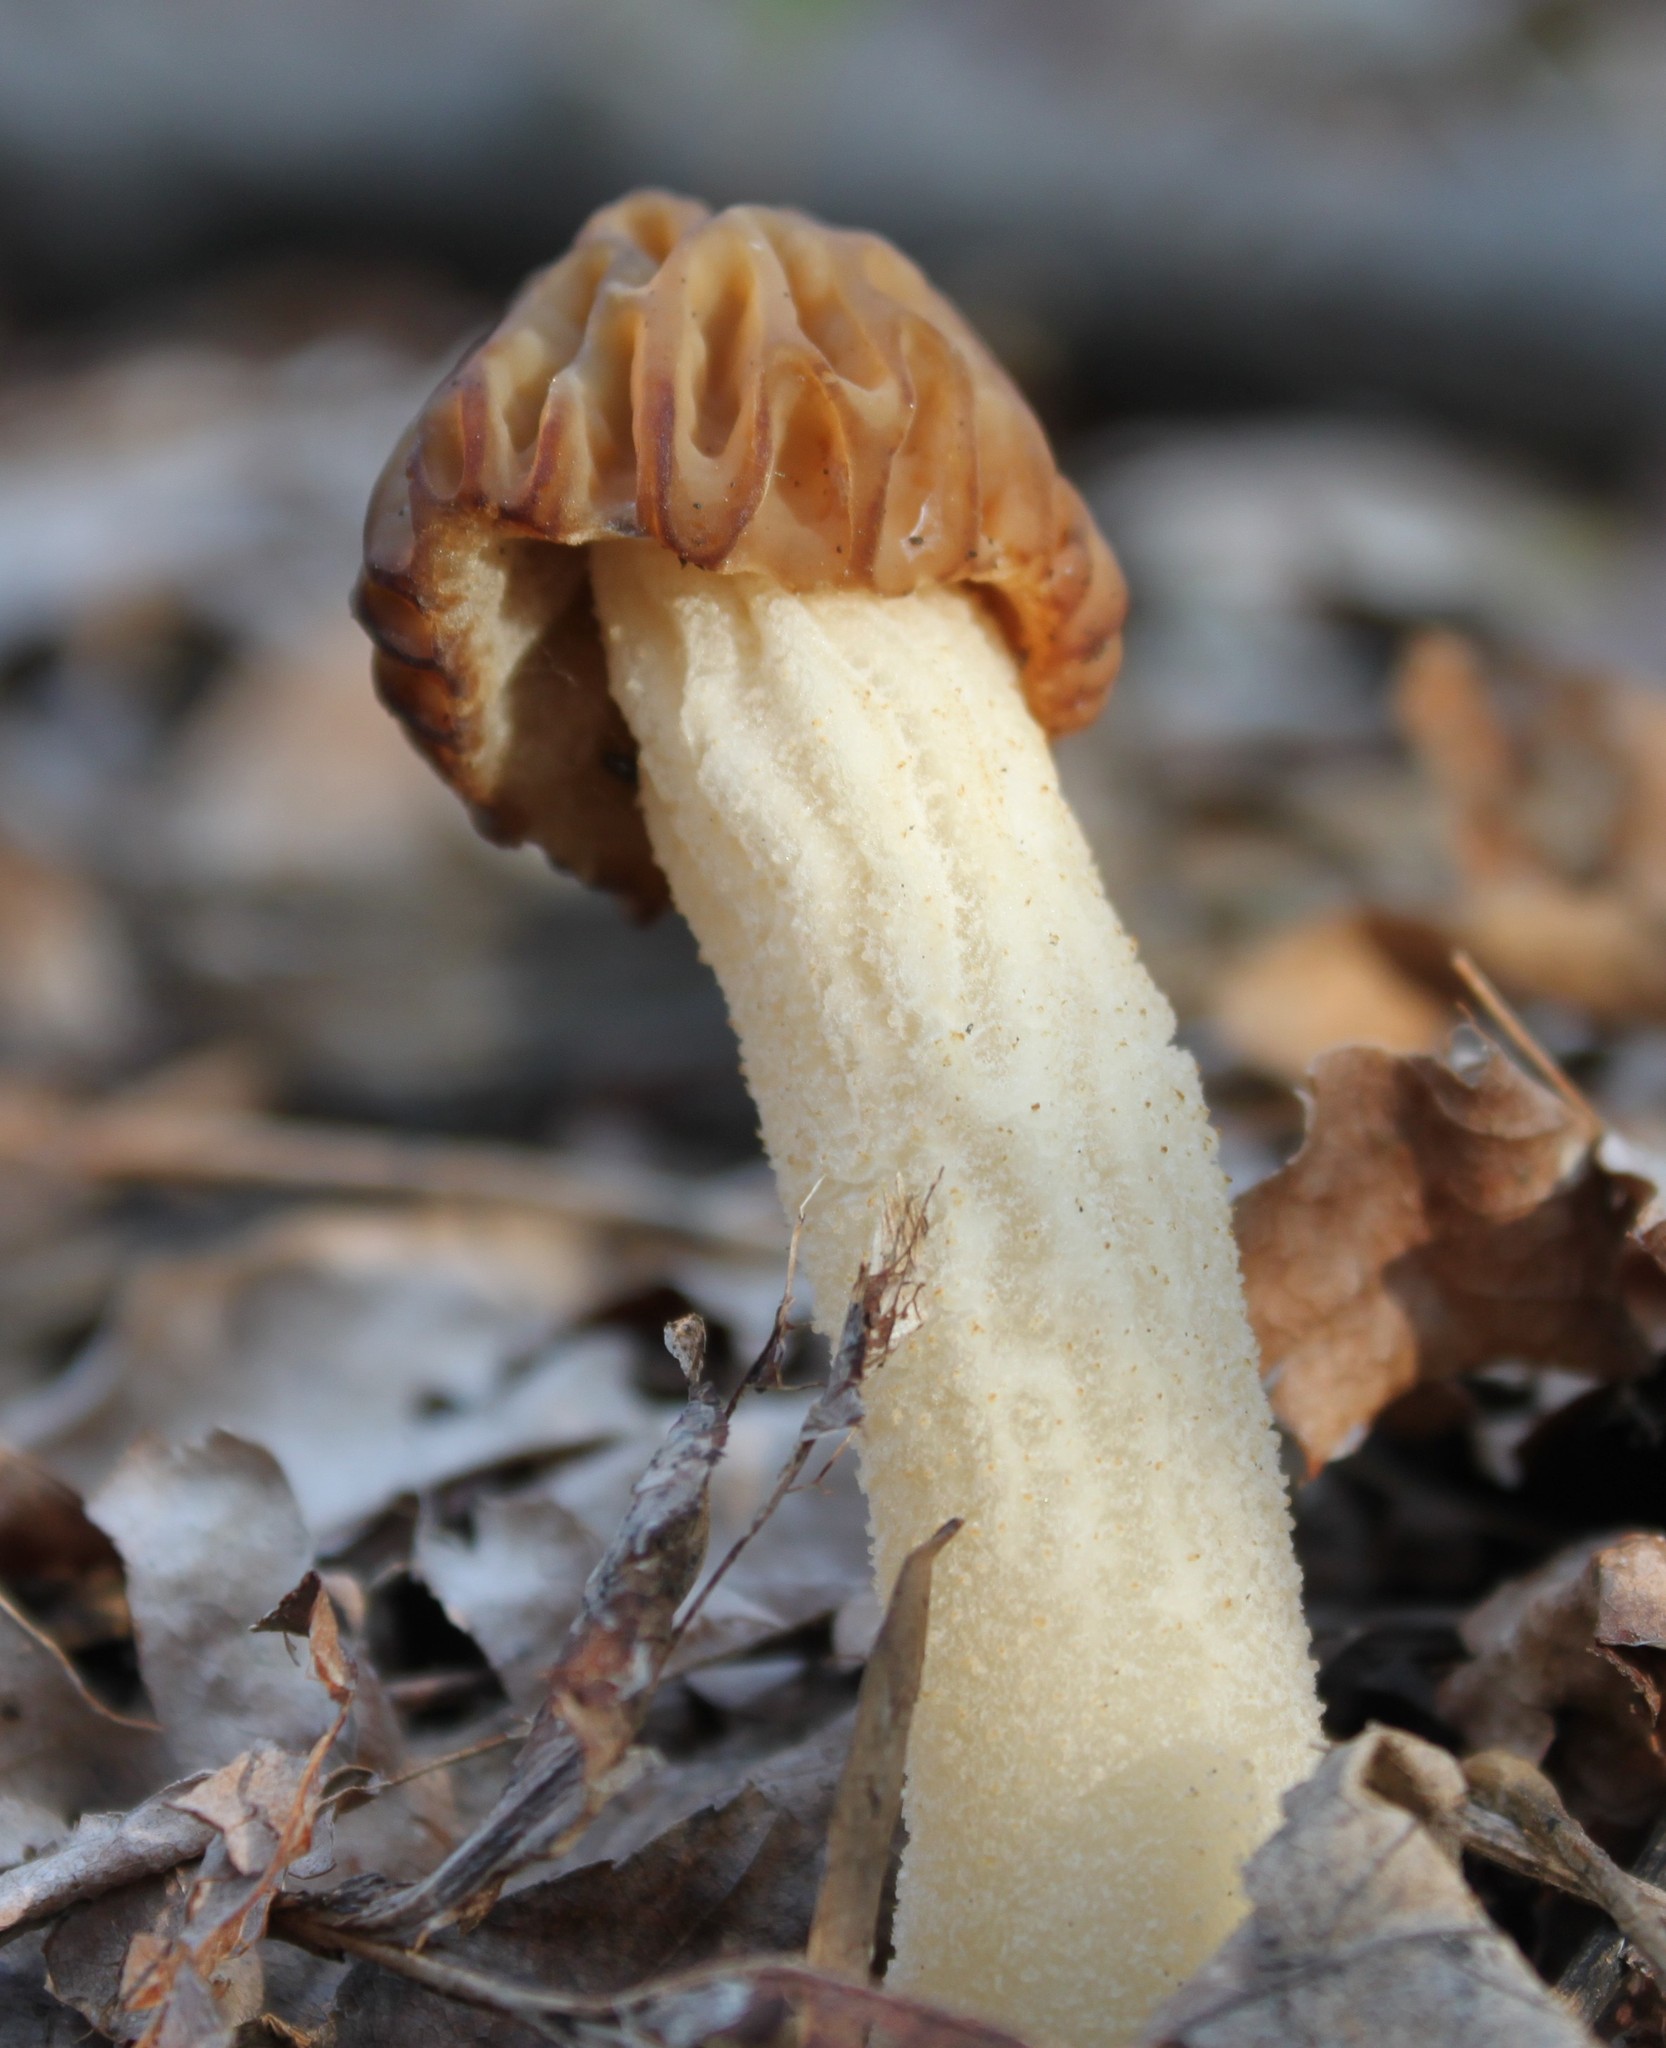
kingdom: Fungi
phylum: Ascomycota
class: Pezizomycetes
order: Pezizales
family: Morchellaceae
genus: Morchella
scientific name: Morchella punctipes
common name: Half-free morel
